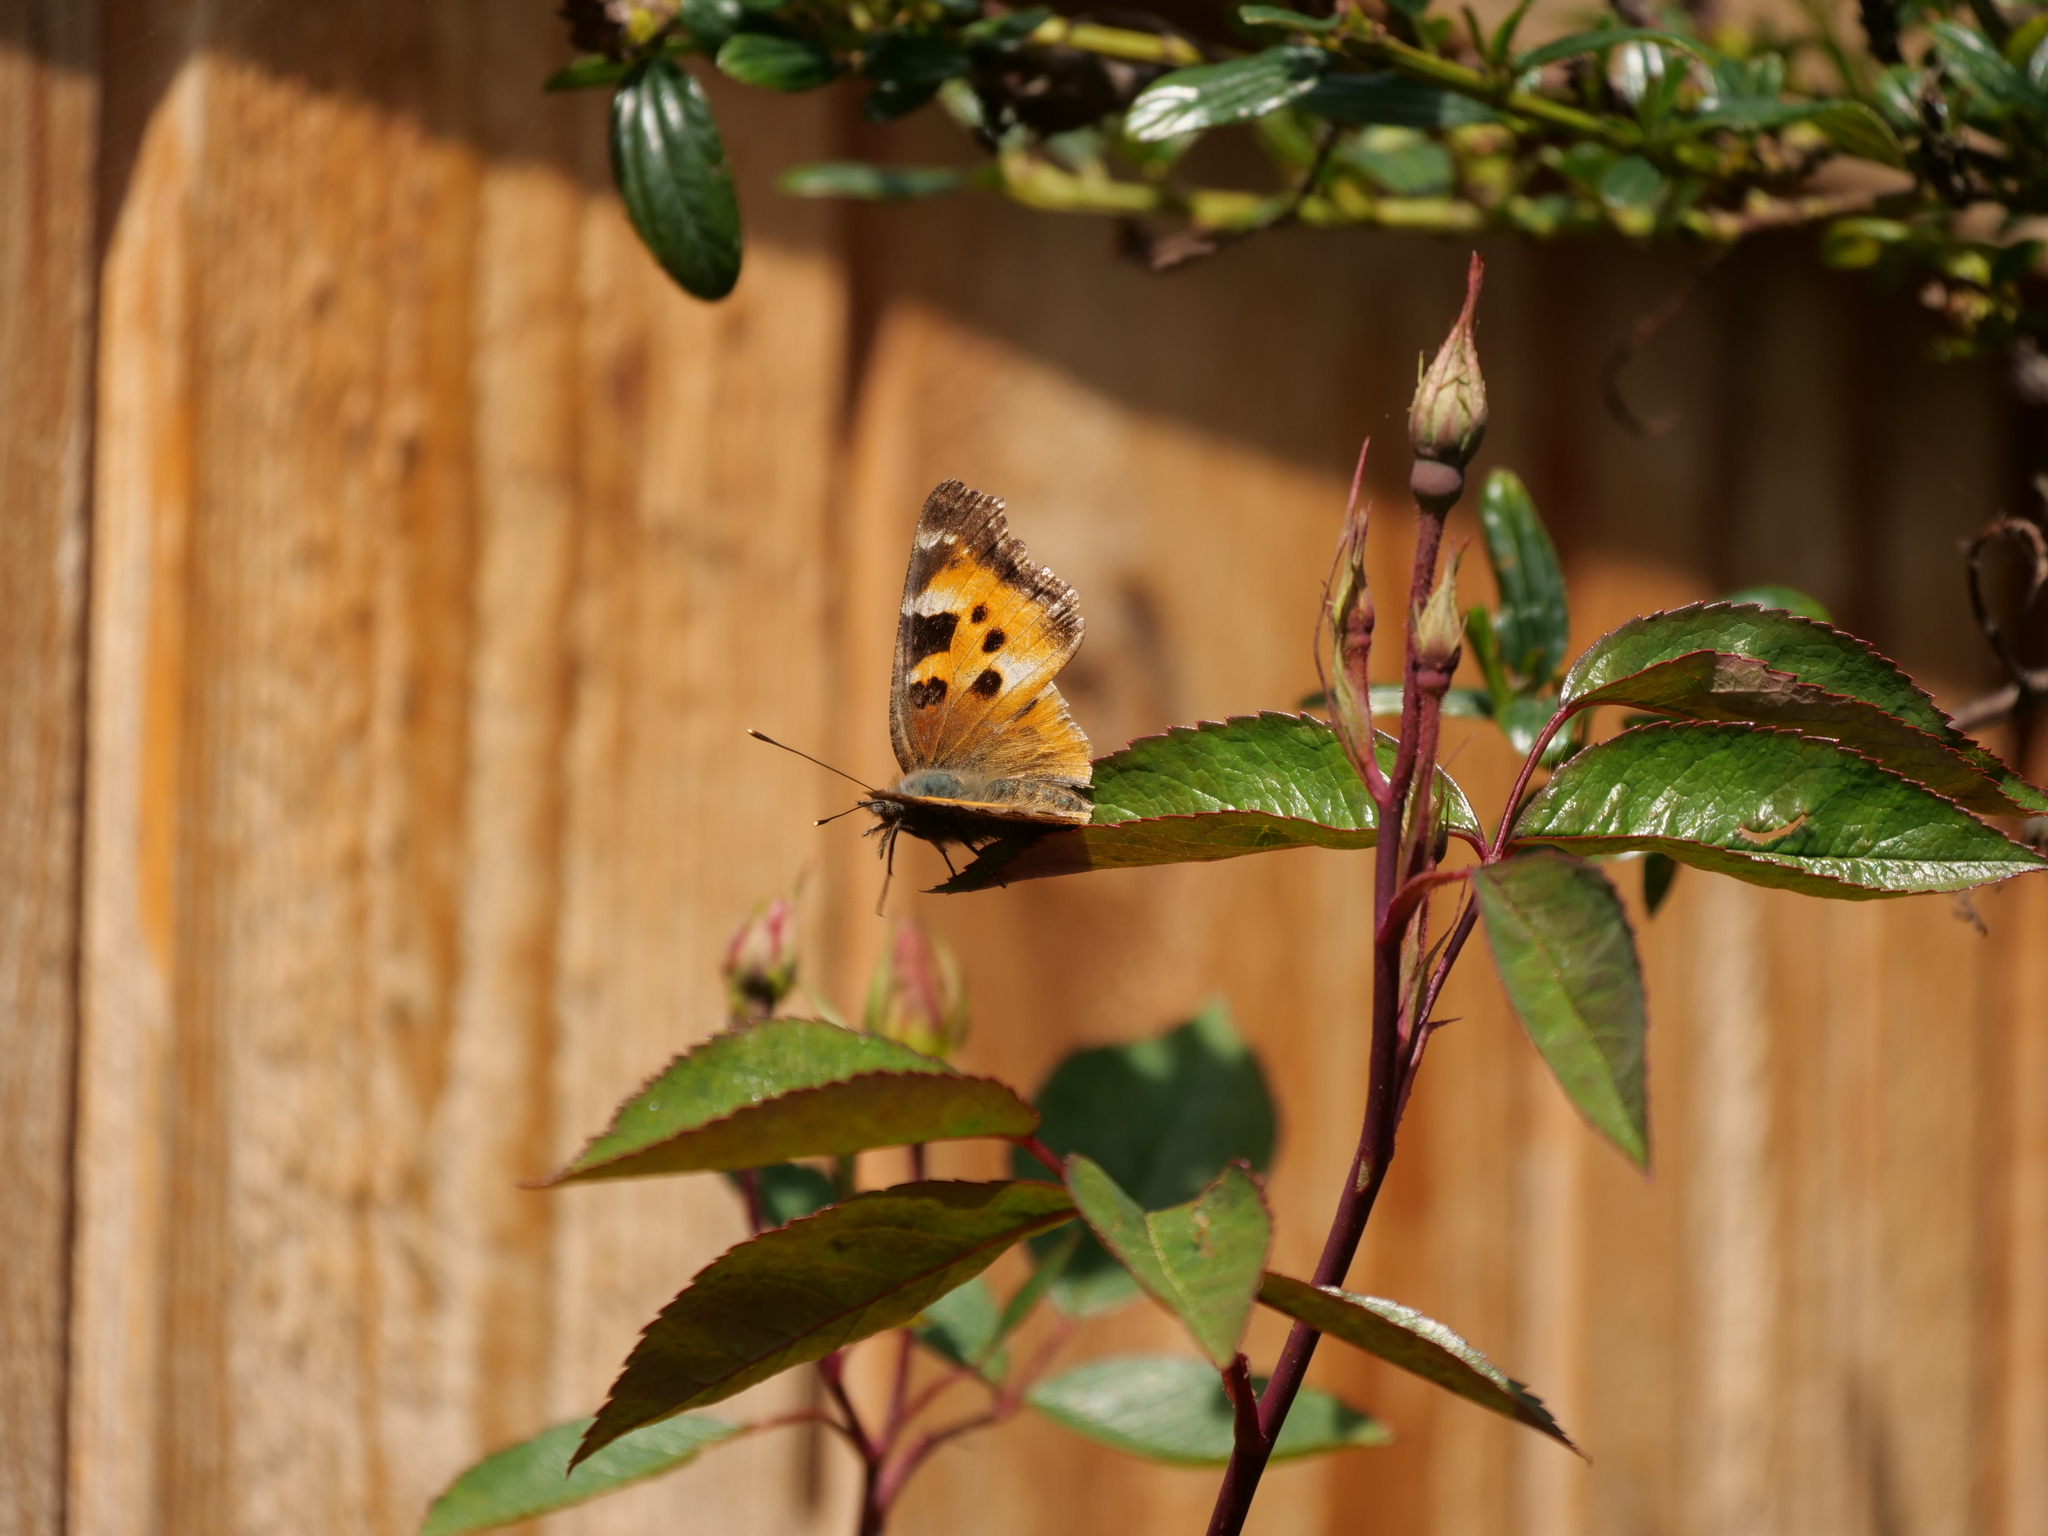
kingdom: Animalia
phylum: Arthropoda
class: Insecta
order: Lepidoptera
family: Nymphalidae
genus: Nymphalis
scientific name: Nymphalis californica
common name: California tortoiseshell
